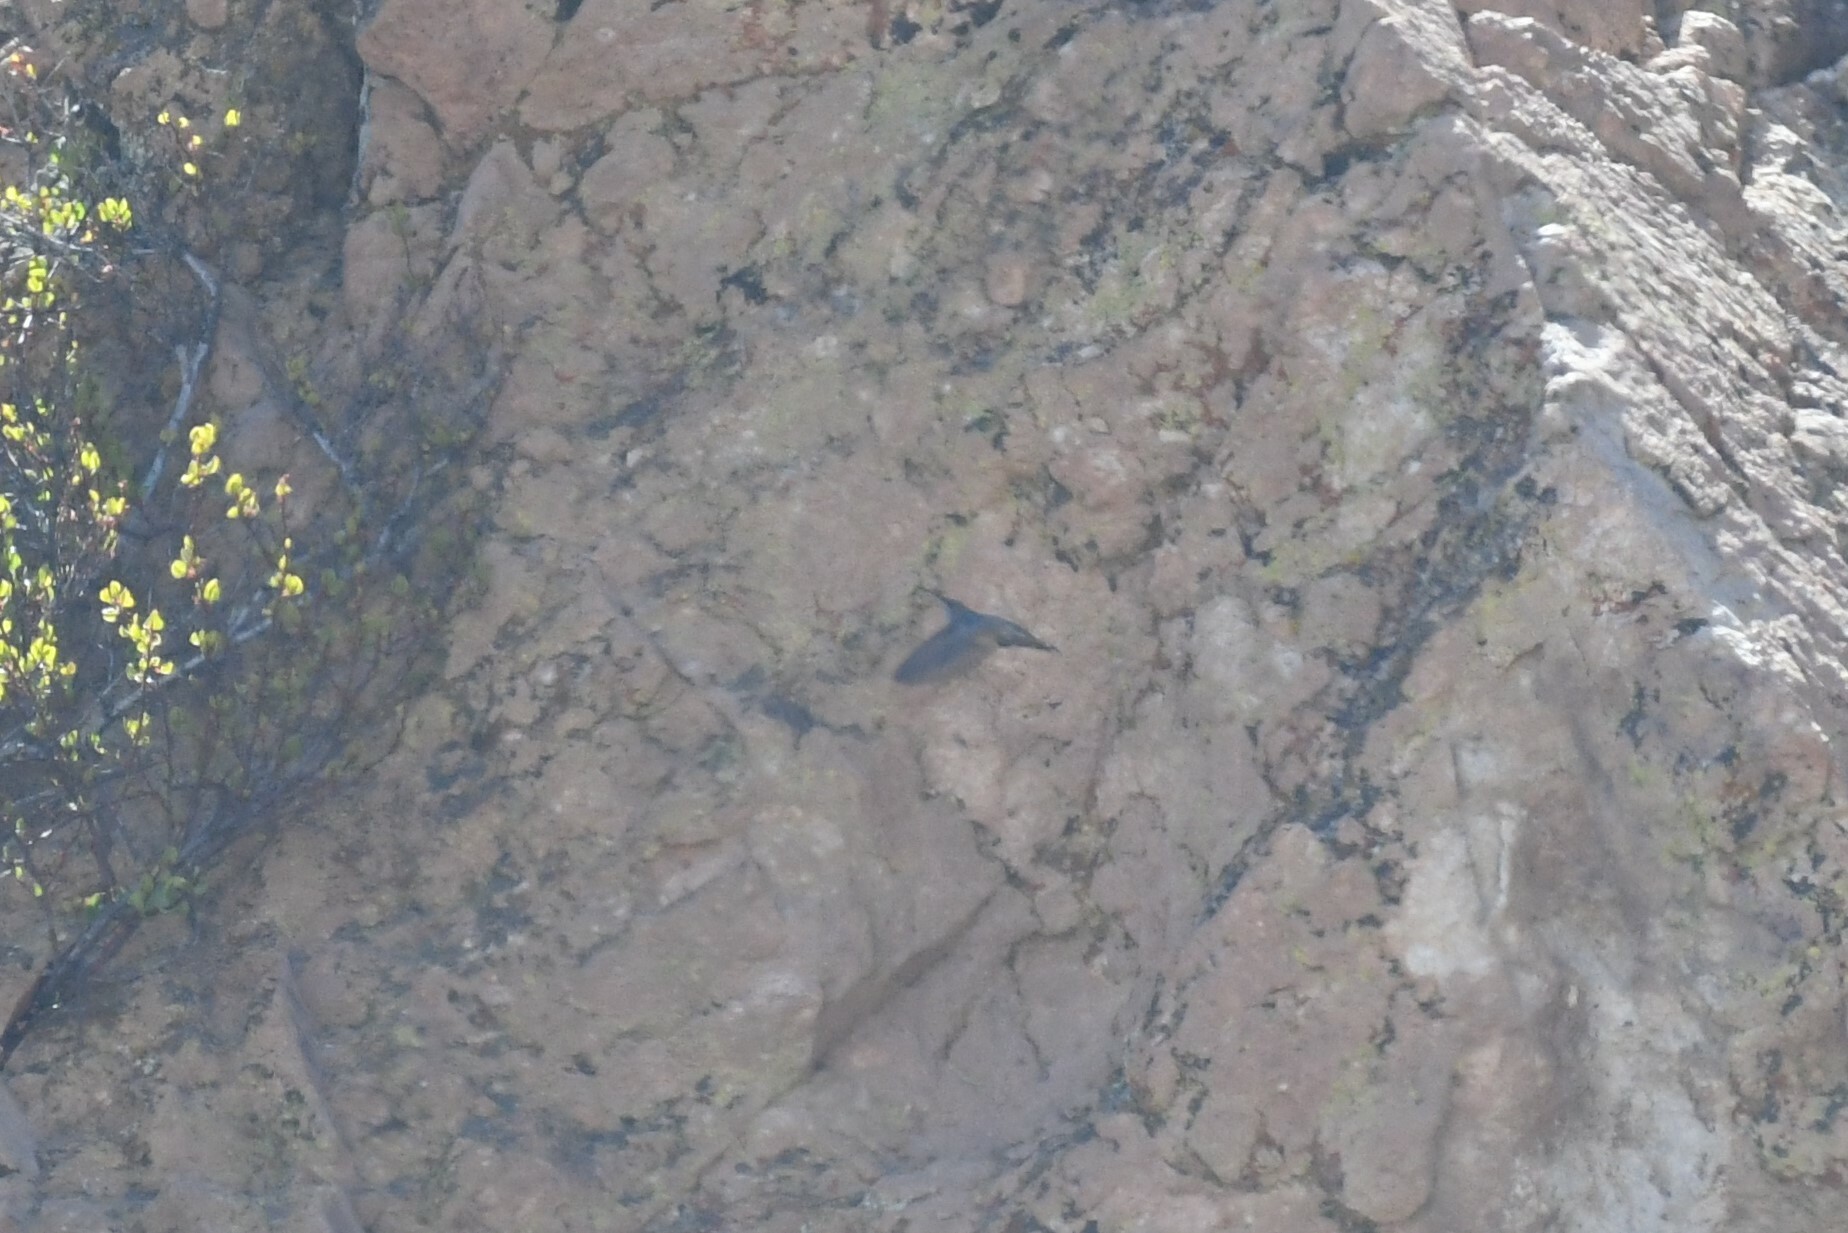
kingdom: Animalia
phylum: Chordata
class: Aves
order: Apodiformes
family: Trochilidae
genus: Oreotrochilus
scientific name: Oreotrochilus estella
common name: Andean hillstar
